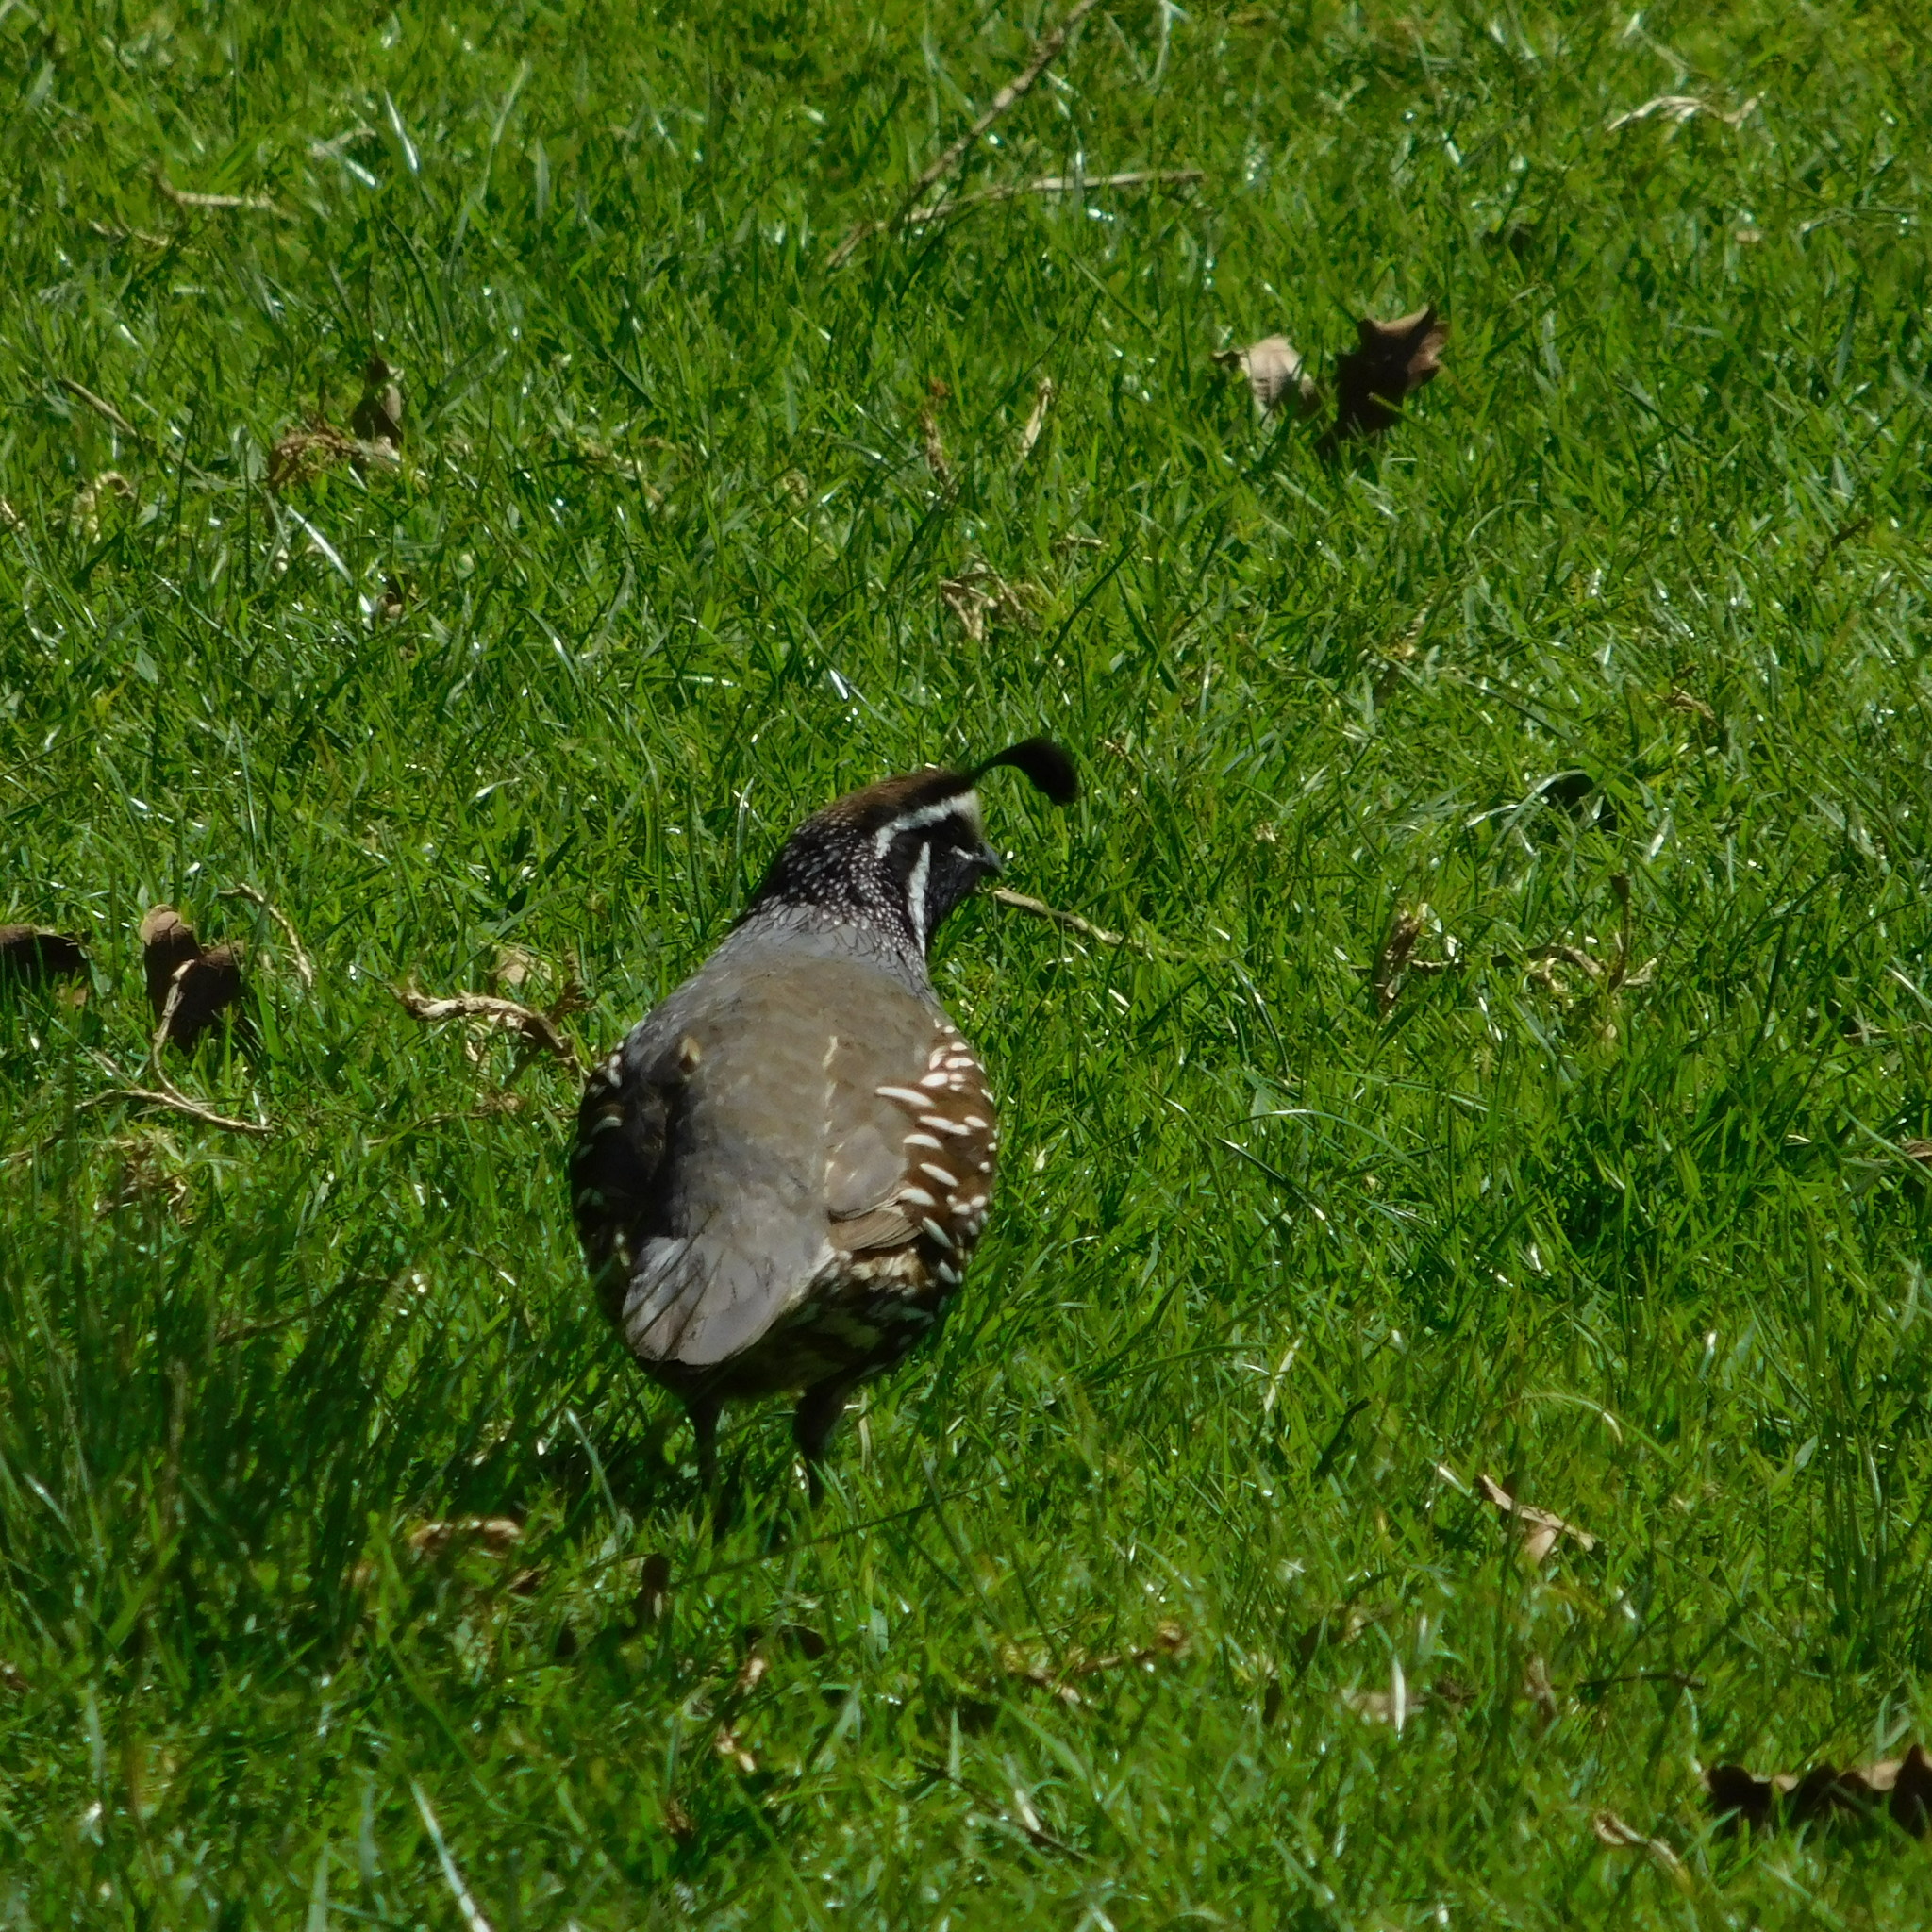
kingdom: Animalia
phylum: Chordata
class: Aves
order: Galliformes
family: Odontophoridae
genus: Callipepla
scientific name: Callipepla californica
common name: California quail
